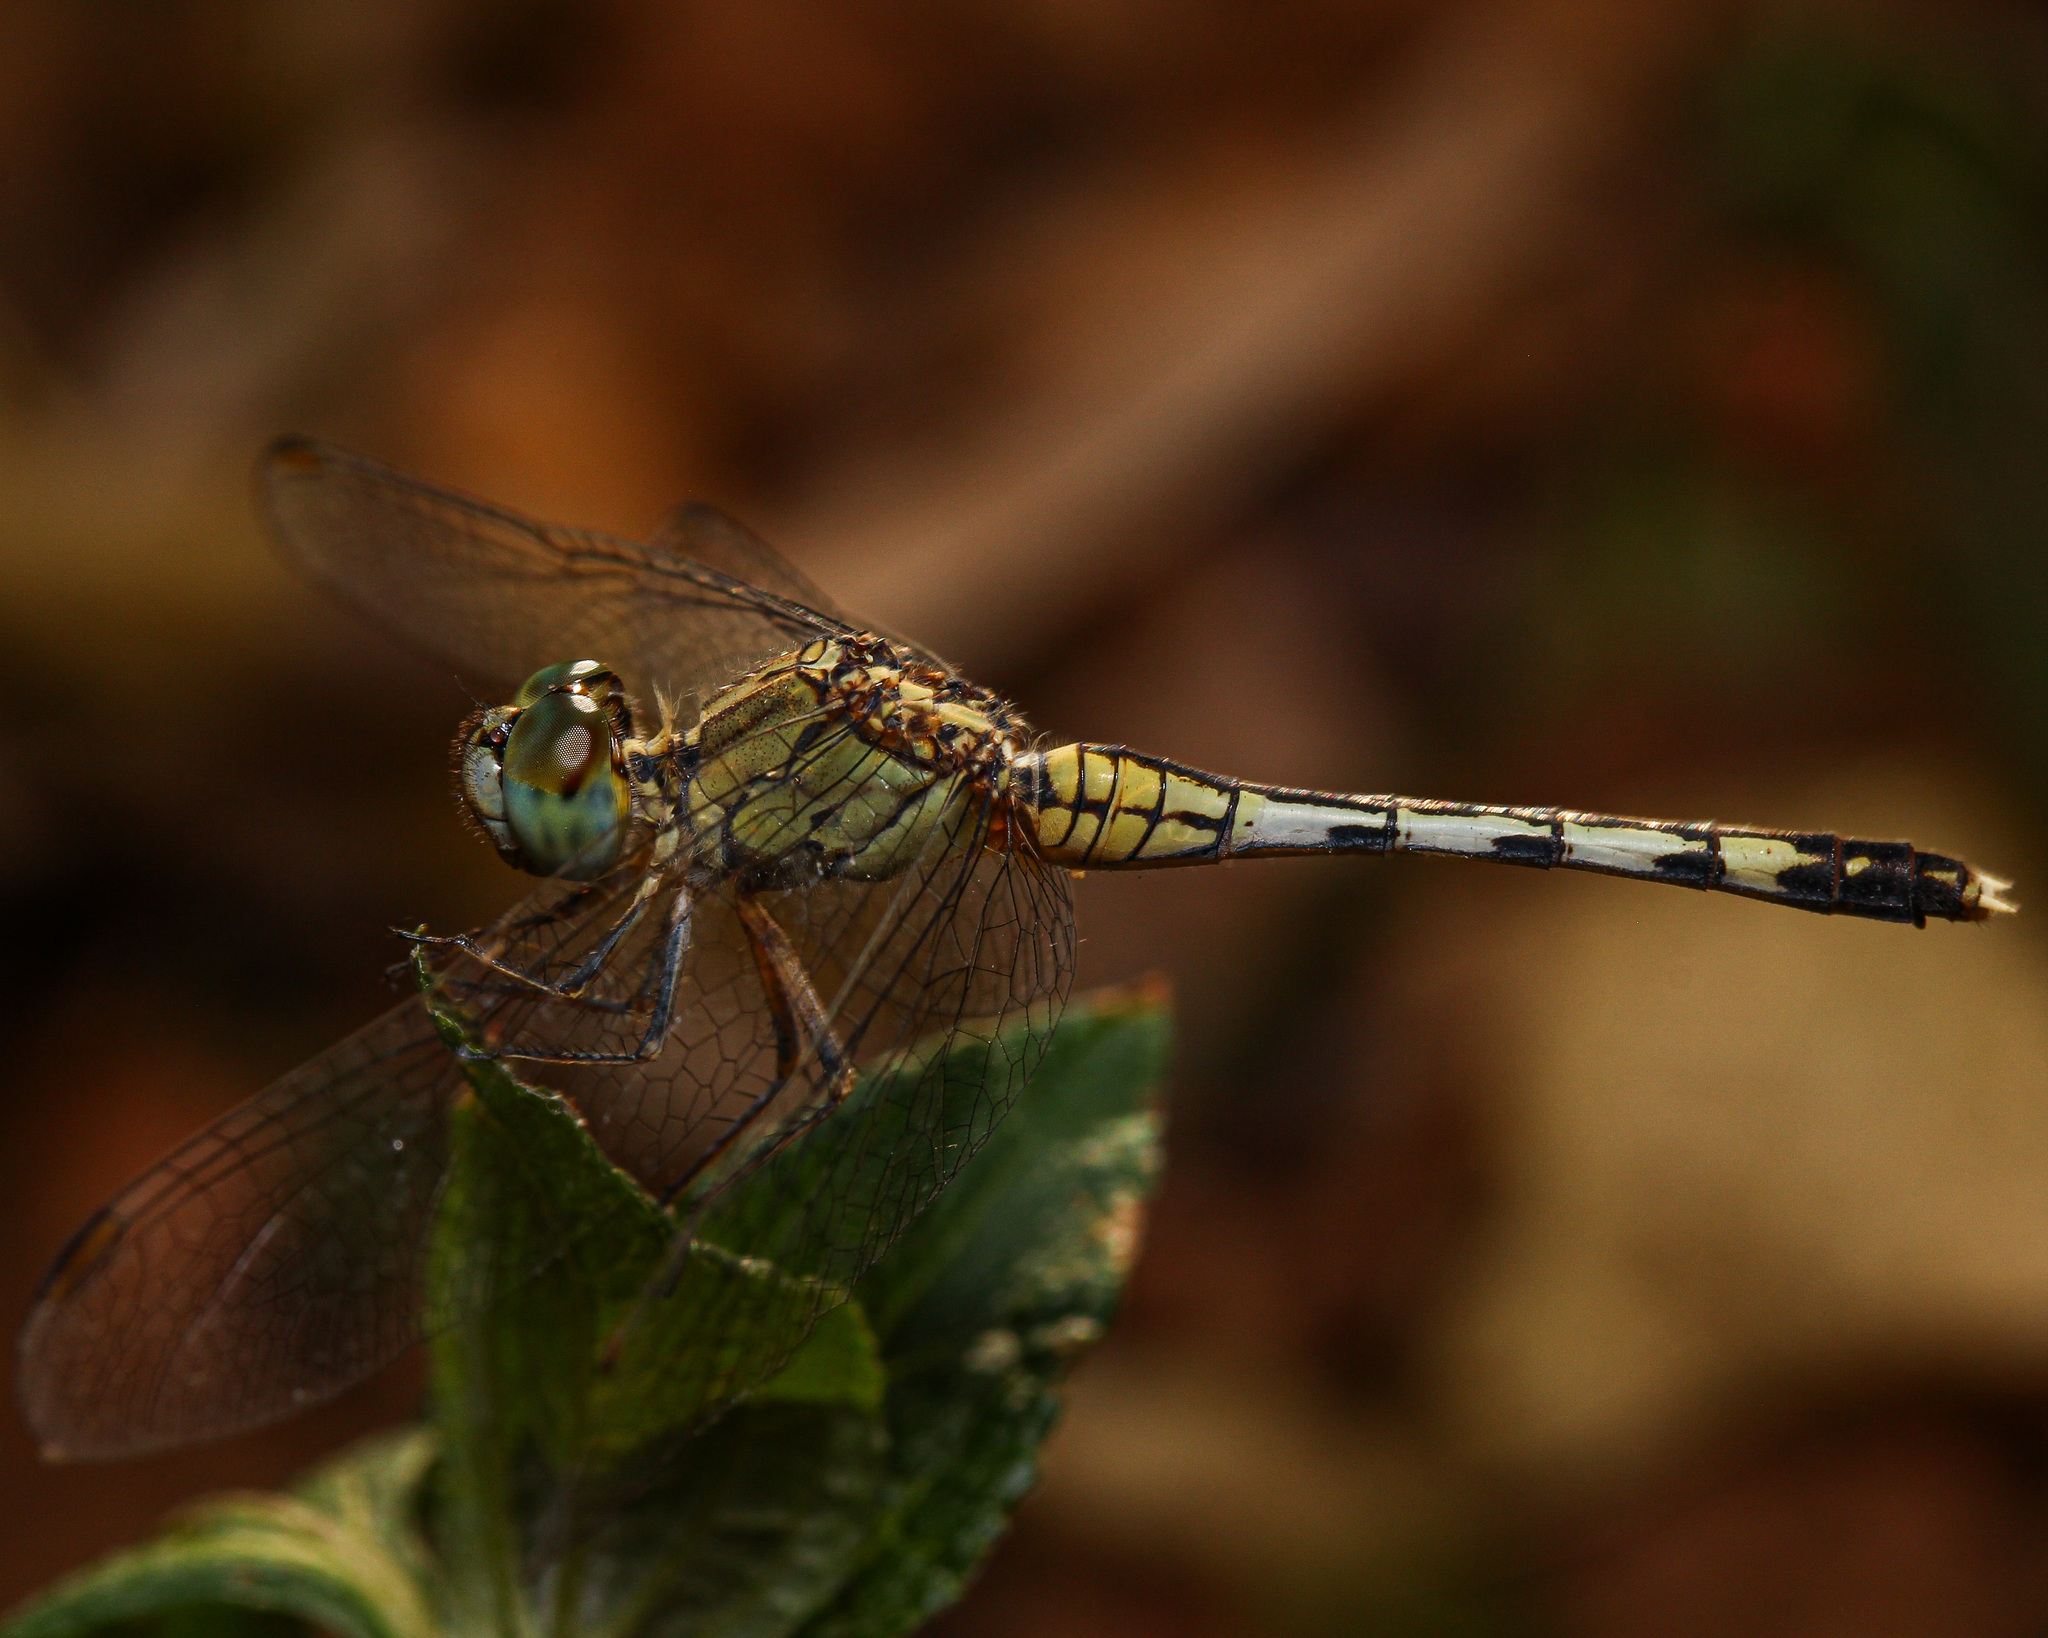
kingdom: Animalia
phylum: Arthropoda
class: Insecta
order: Odonata
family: Libellulidae
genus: Diplacodes
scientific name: Diplacodes trivialis
